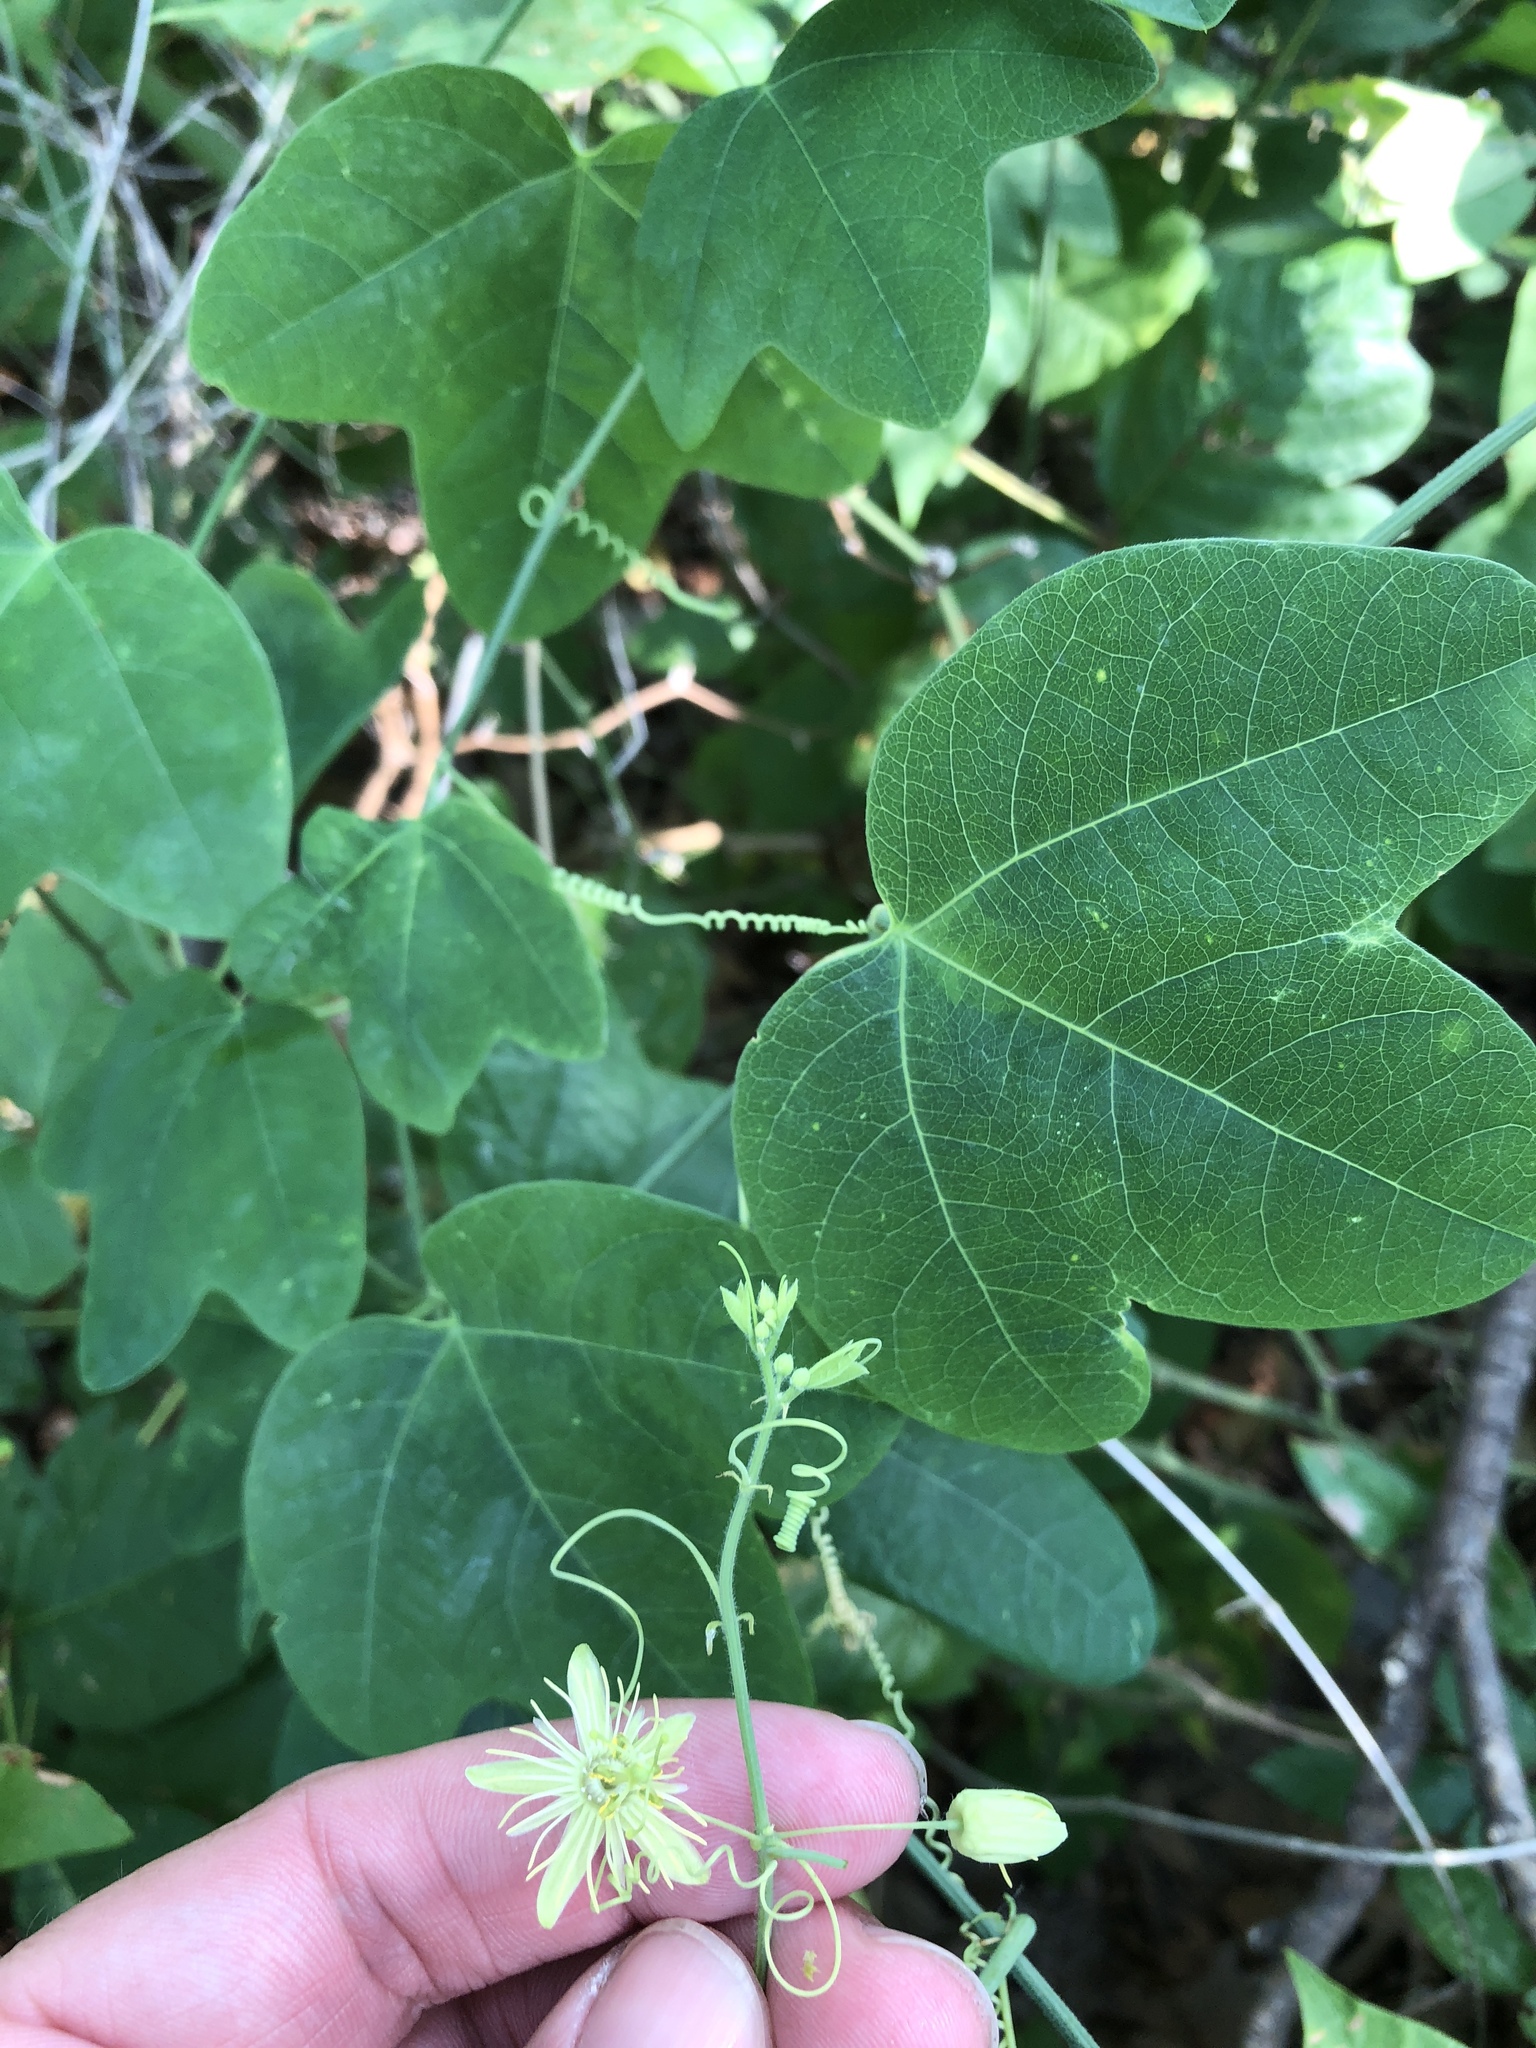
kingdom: Plantae
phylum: Tracheophyta
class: Magnoliopsida
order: Malpighiales
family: Passifloraceae
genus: Passiflora
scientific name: Passiflora lutea
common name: Yellow passionflower
